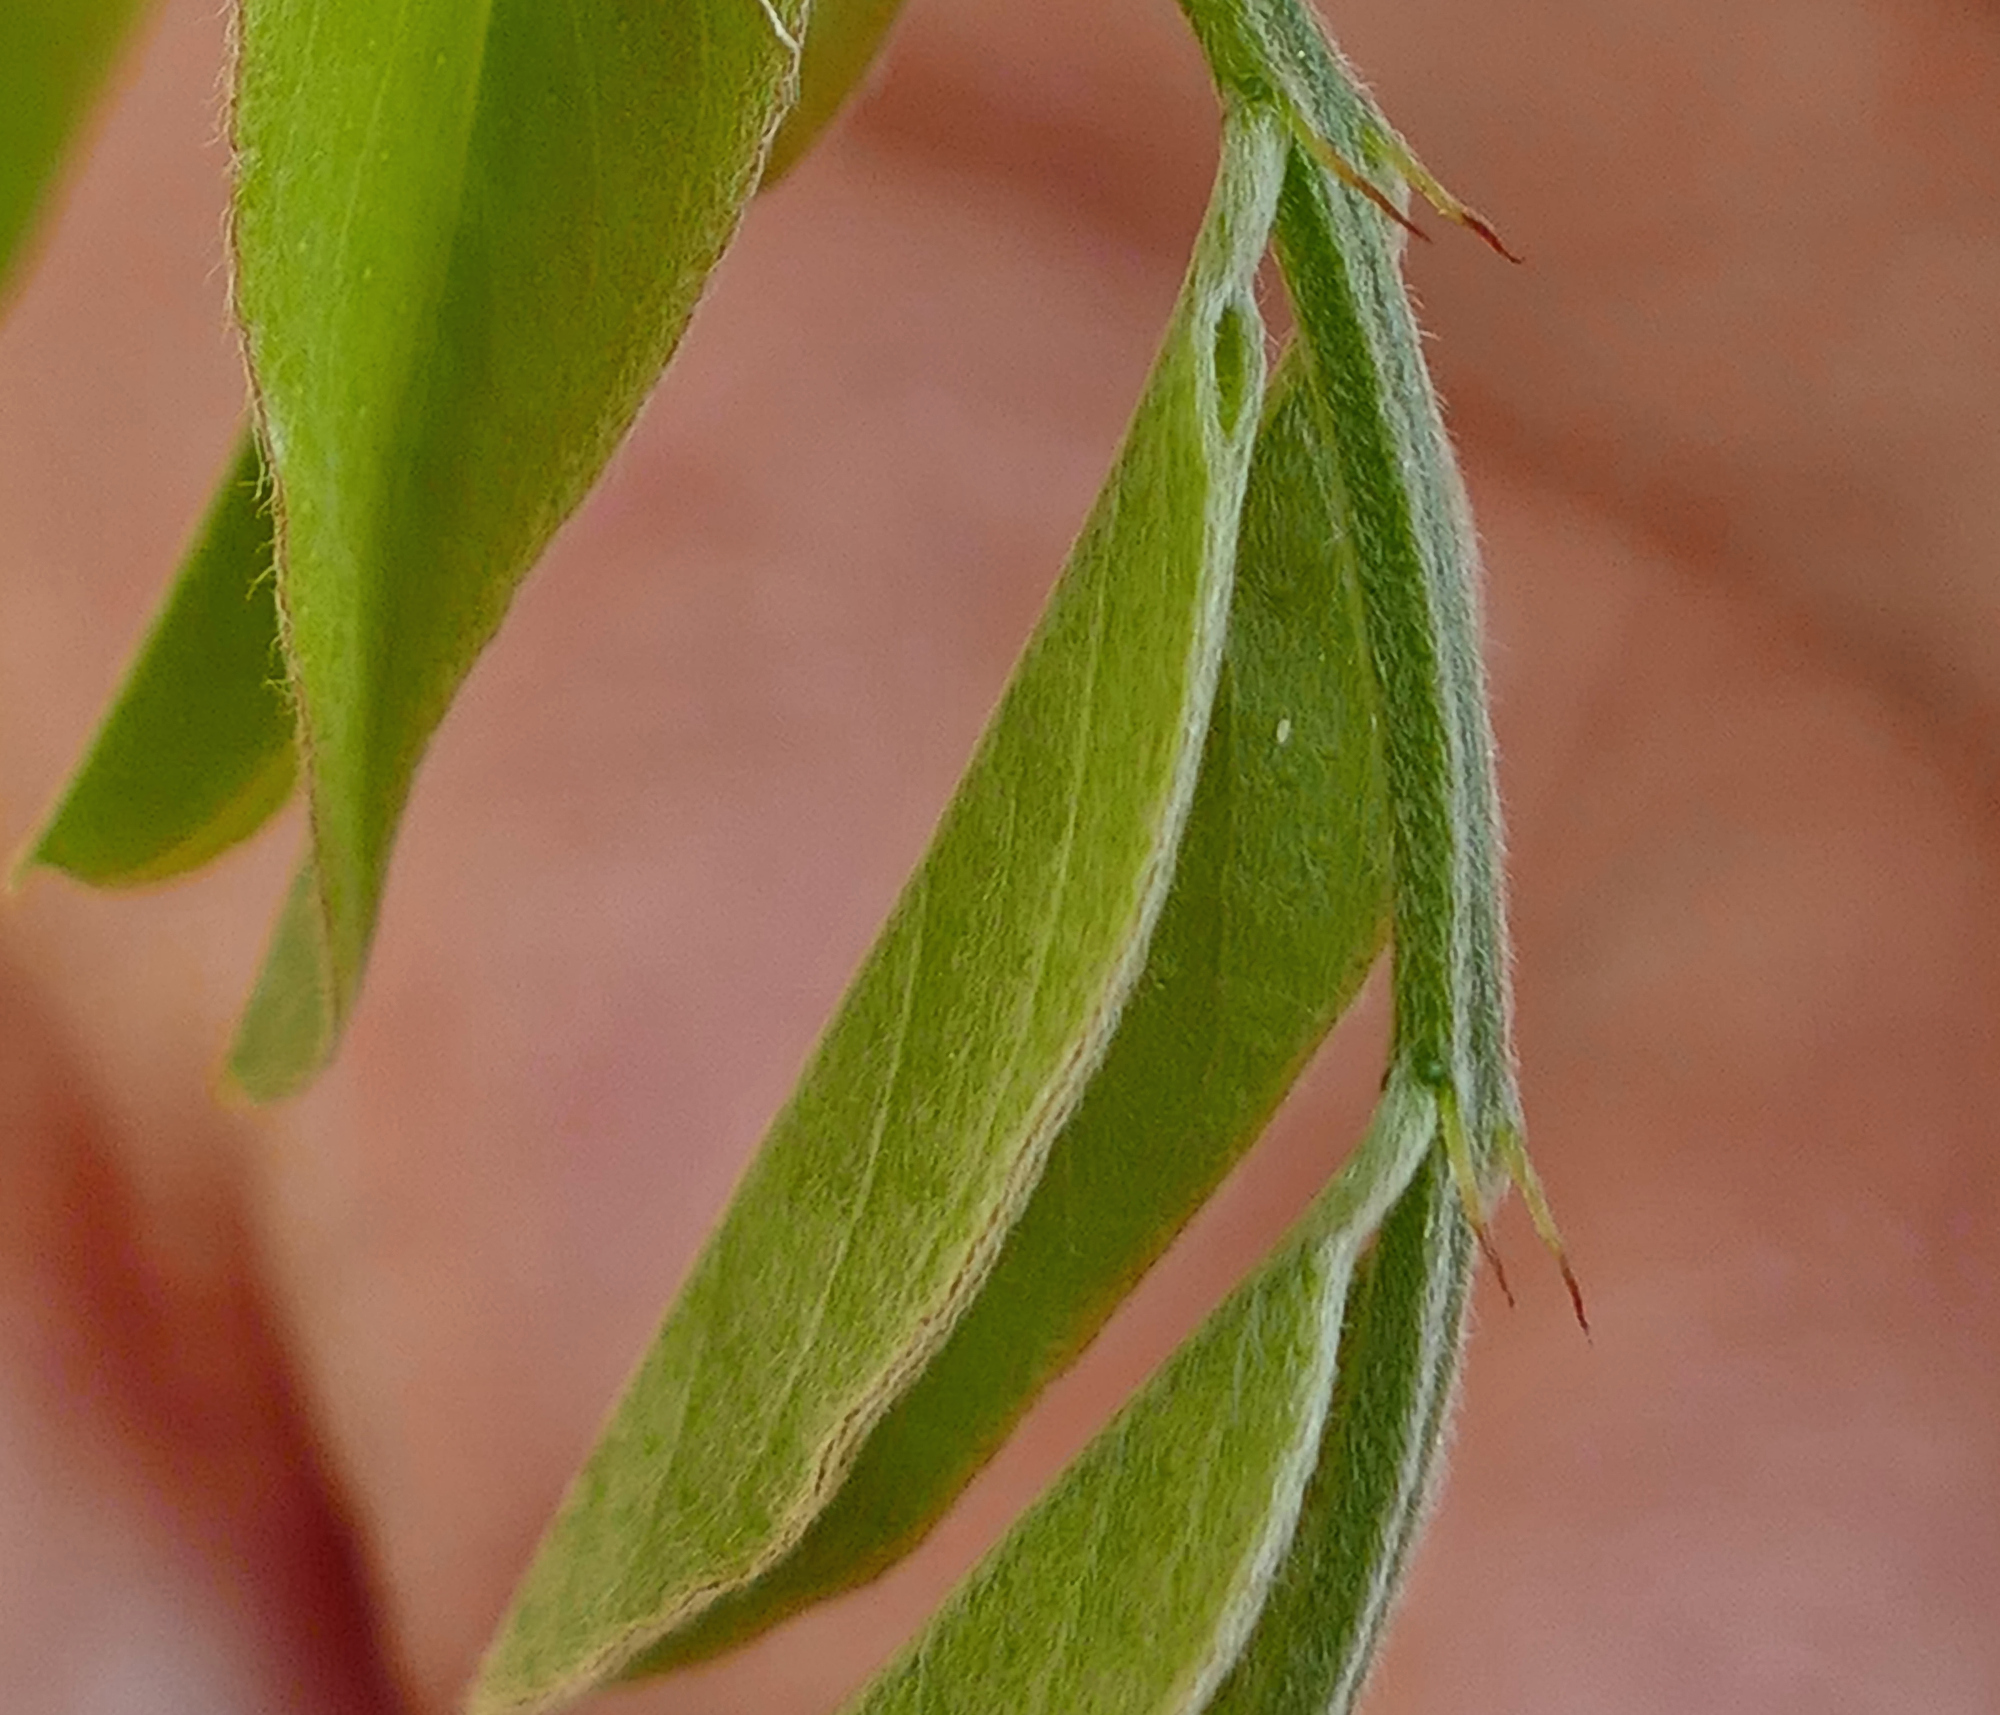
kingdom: Plantae
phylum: Tracheophyta
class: Magnoliopsida
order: Fabales
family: Fabaceae
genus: Amorpha
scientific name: Amorpha fruticosa
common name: False indigo
